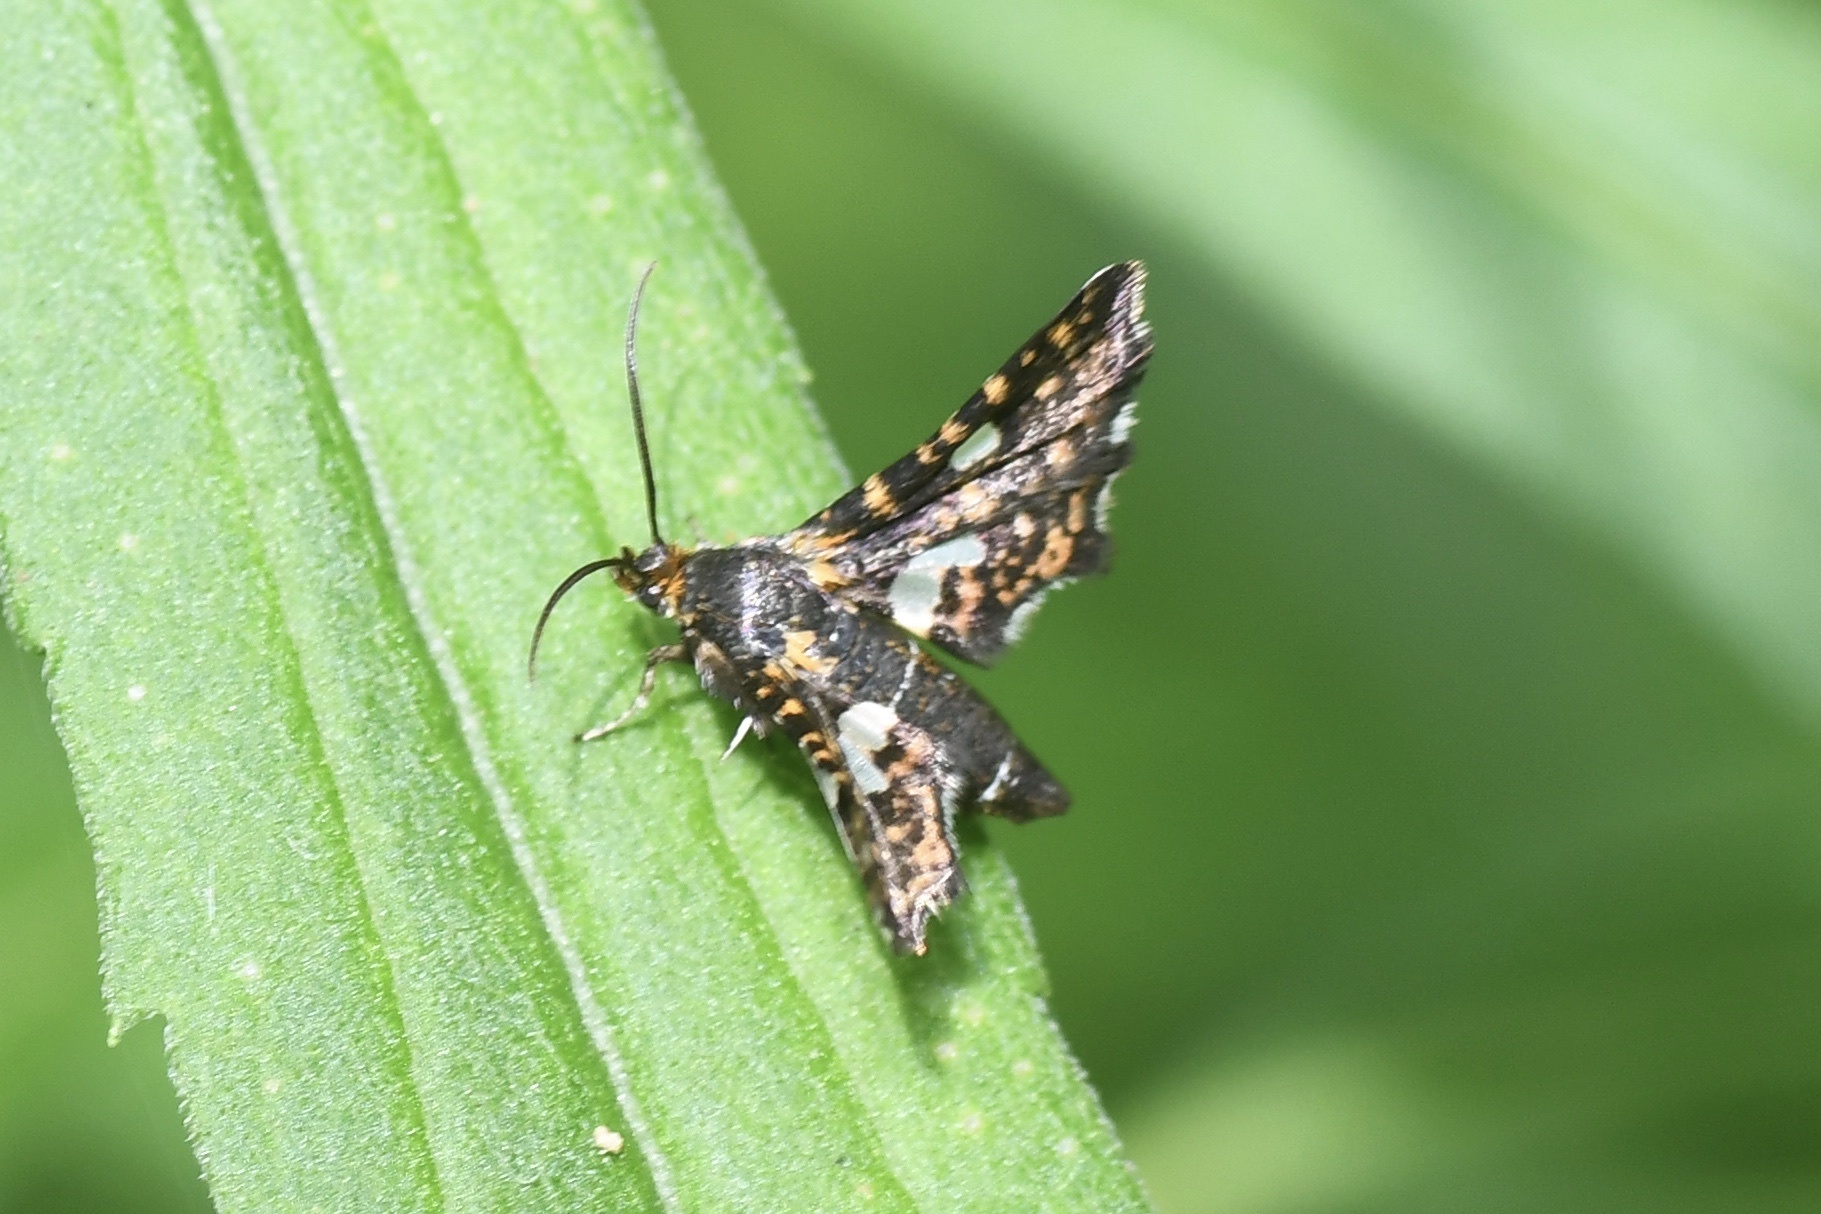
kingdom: Animalia
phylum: Arthropoda
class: Insecta
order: Lepidoptera
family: Thyrididae
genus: Thyris
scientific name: Thyris maculata
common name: Spotted thyris moth
